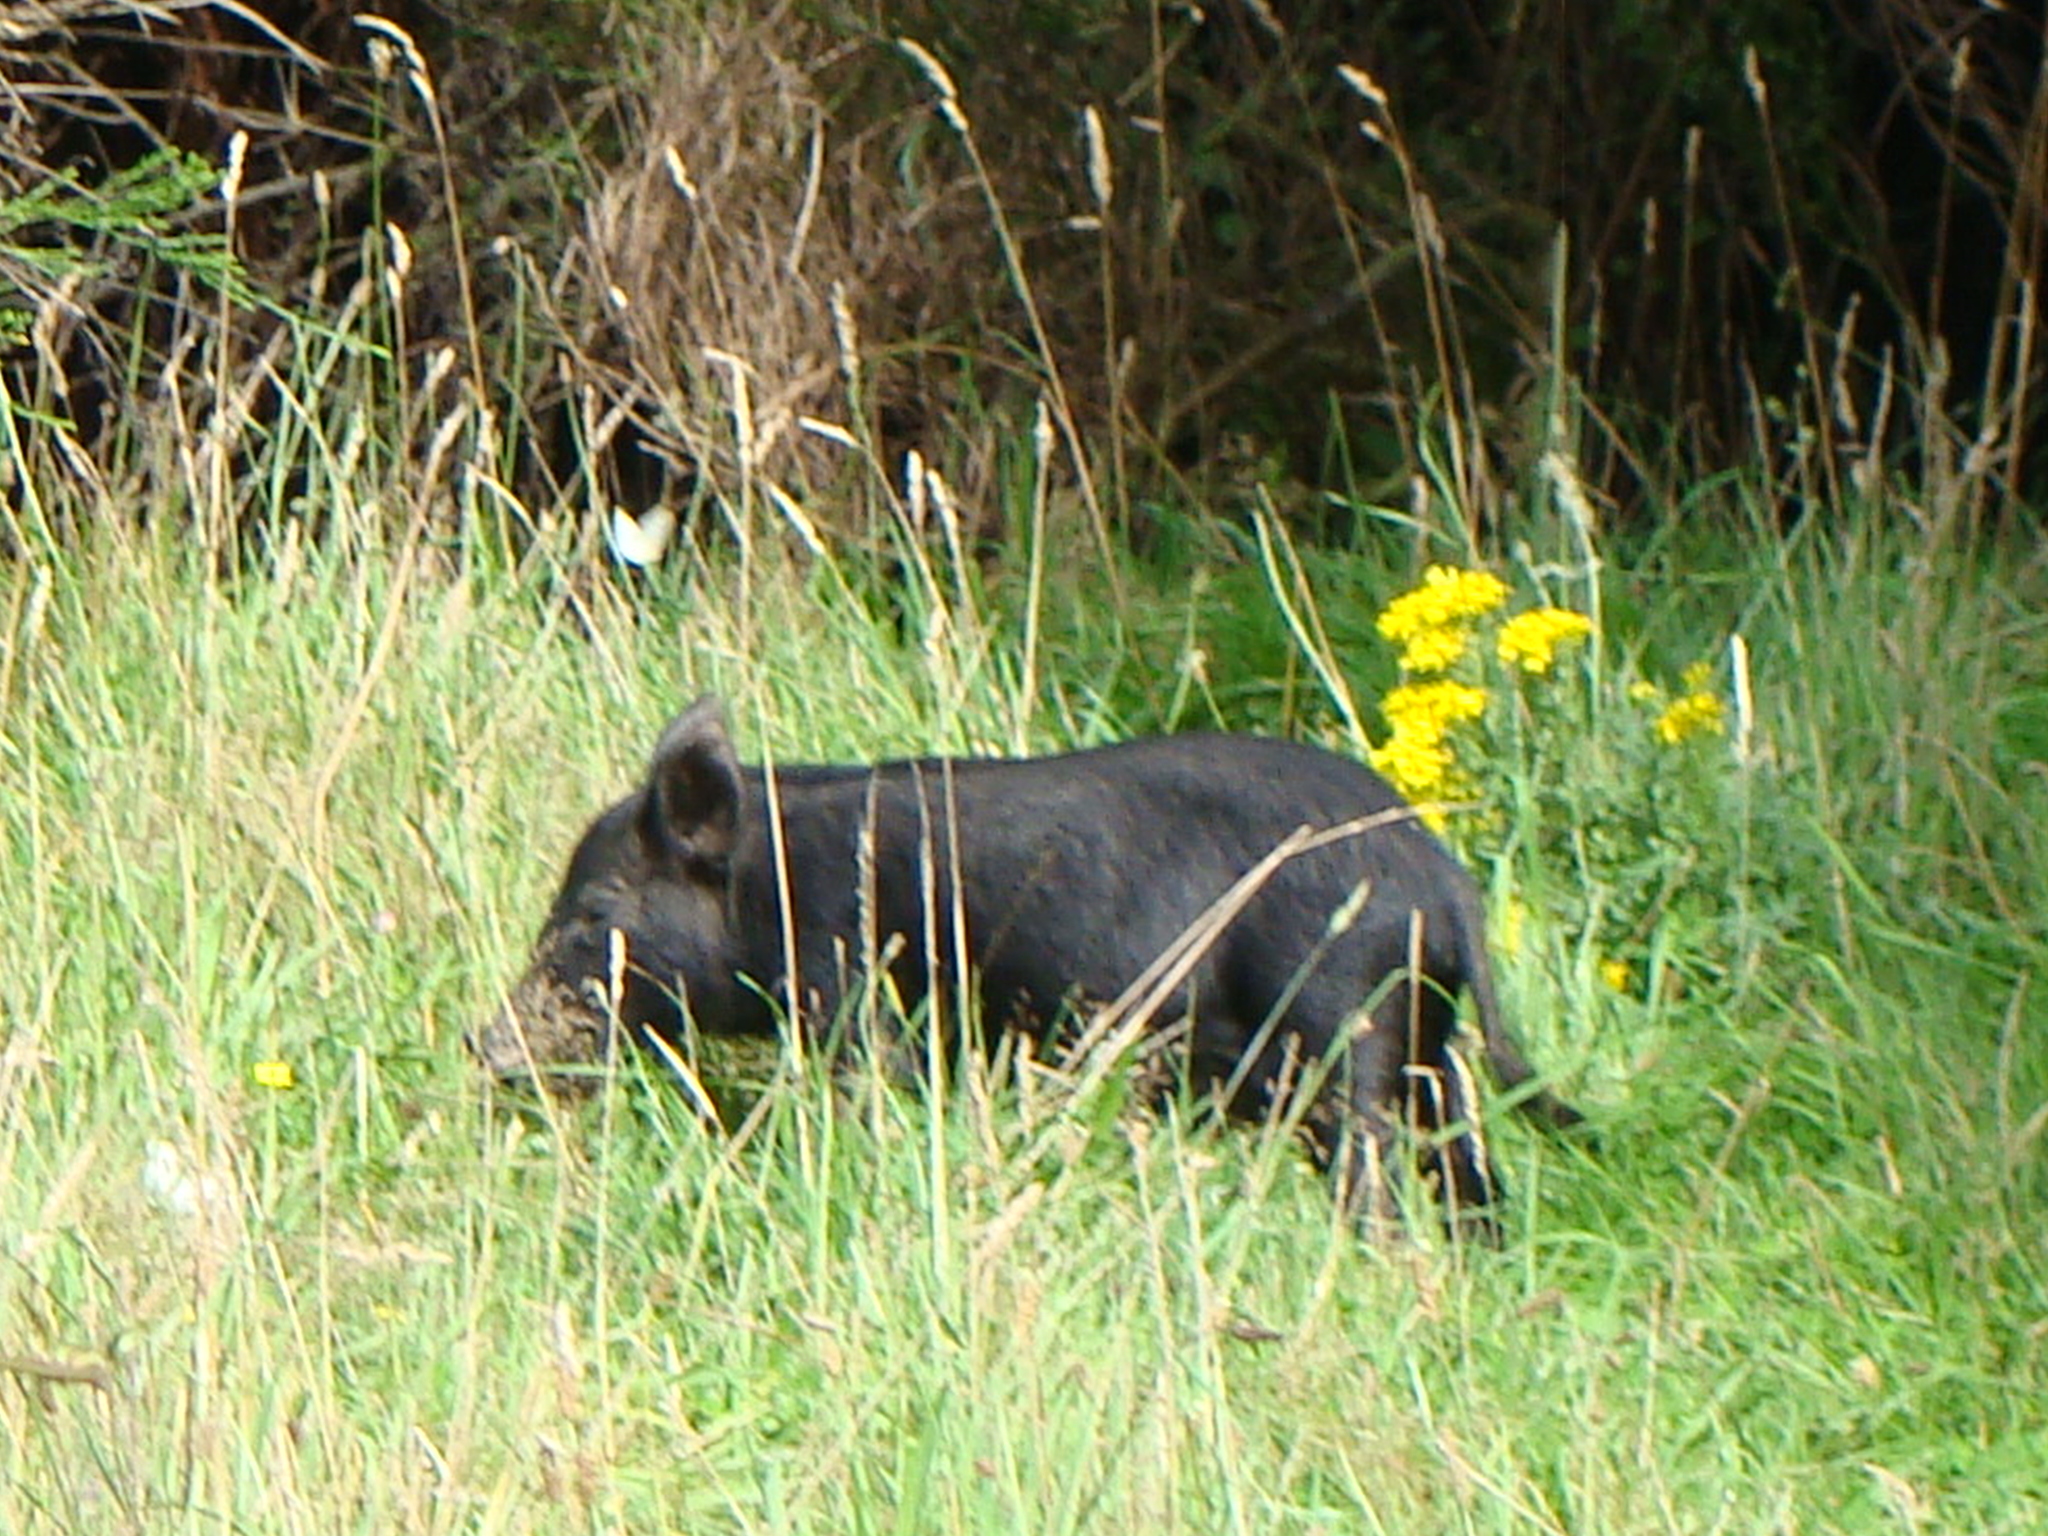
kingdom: Animalia
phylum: Chordata
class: Mammalia
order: Artiodactyla
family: Suidae
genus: Sus
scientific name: Sus scrofa
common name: Wild boar
